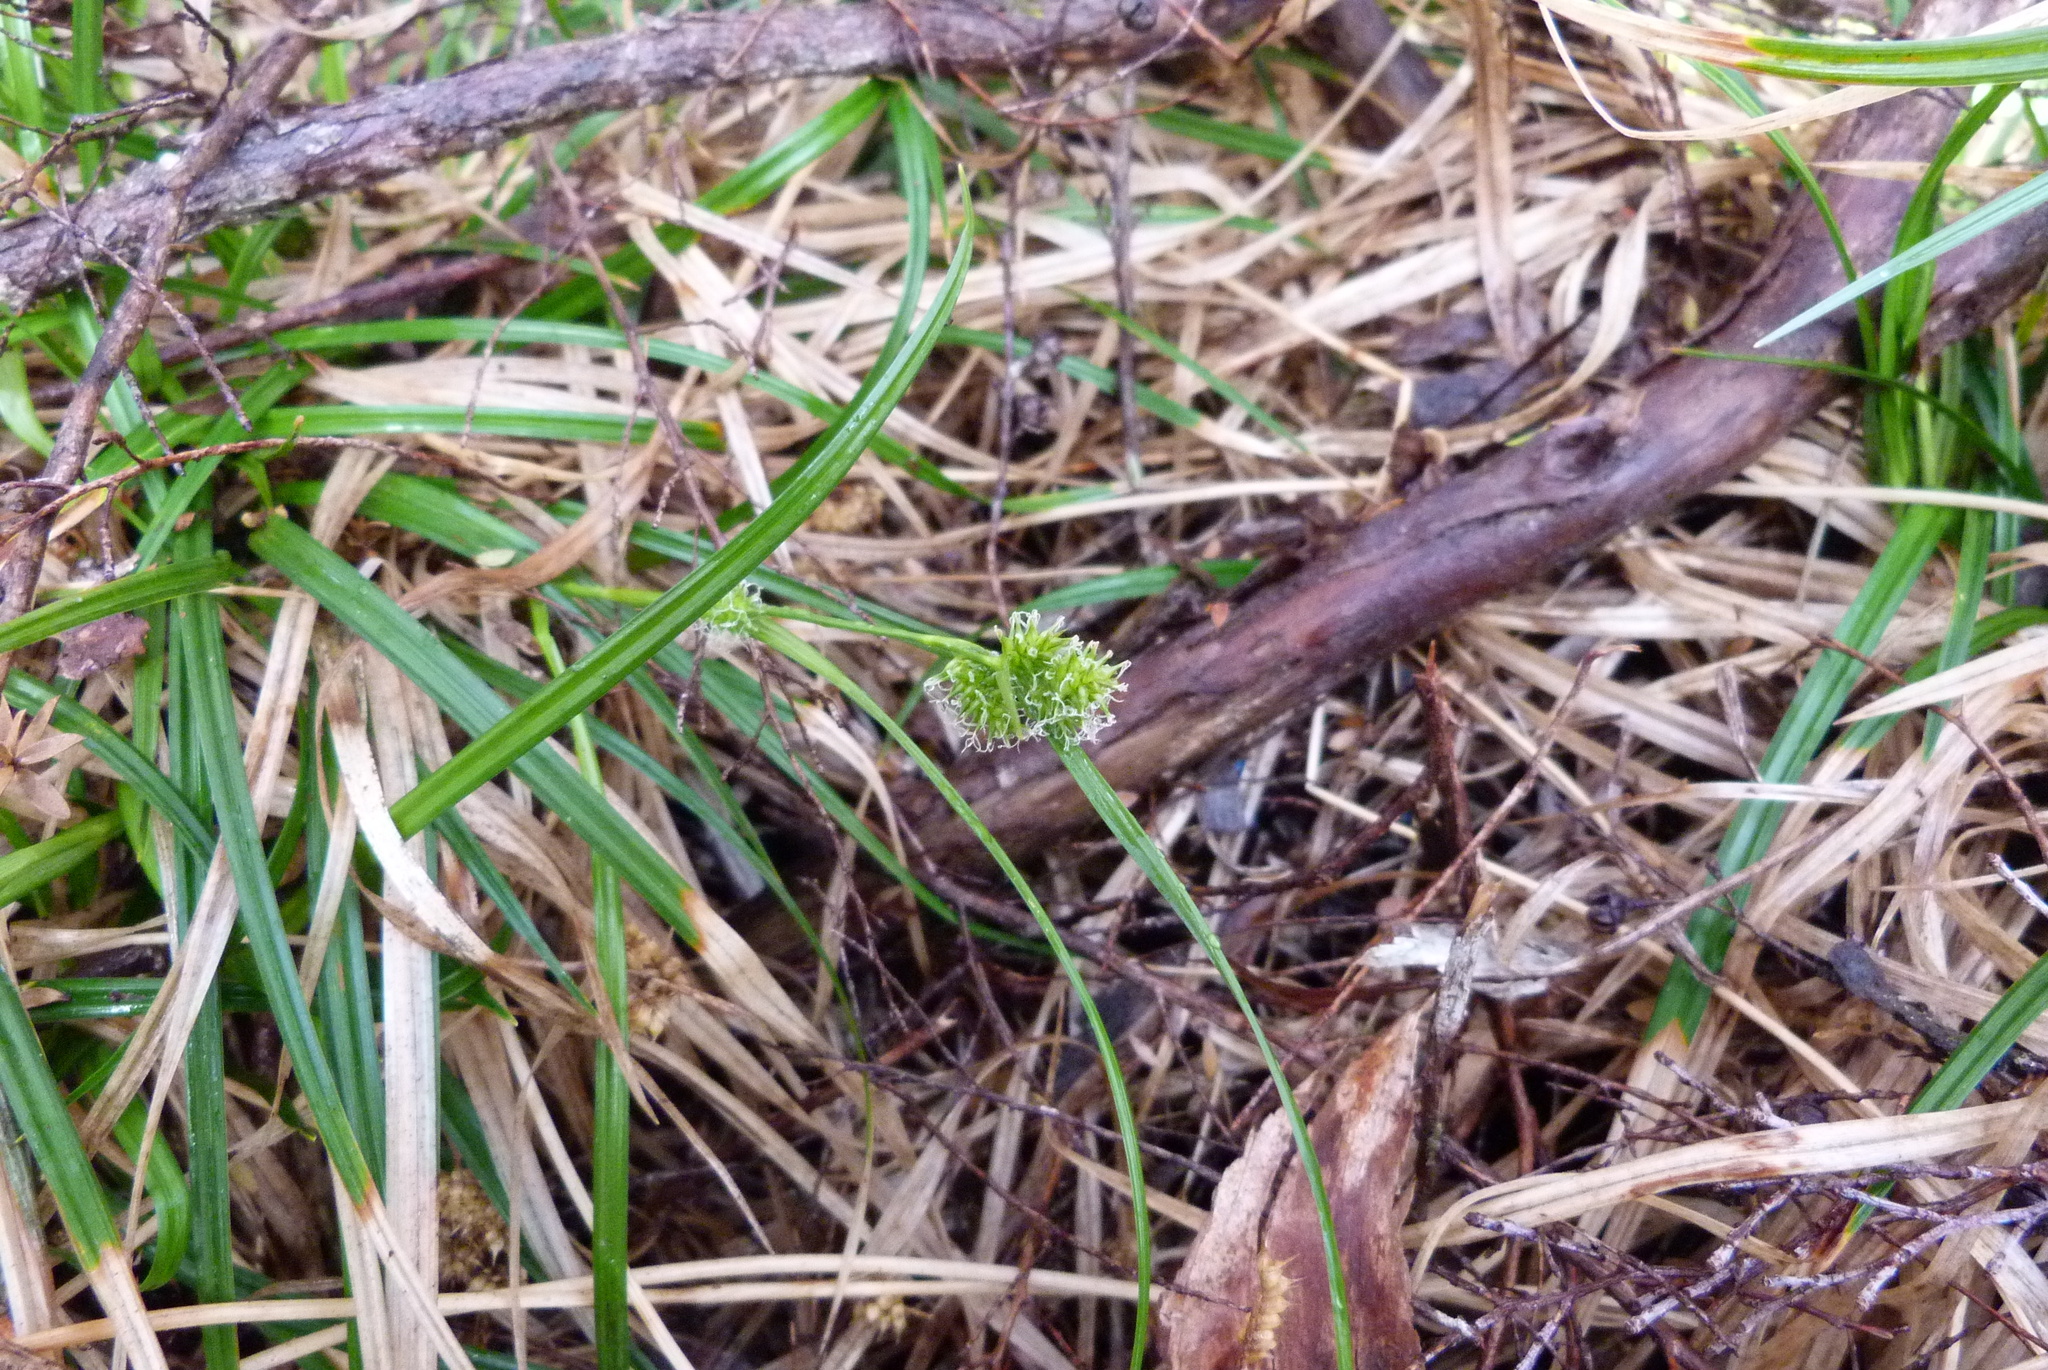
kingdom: Plantae
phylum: Tracheophyta
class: Liliopsida
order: Poales
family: Cyperaceae
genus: Carex
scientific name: Carex
